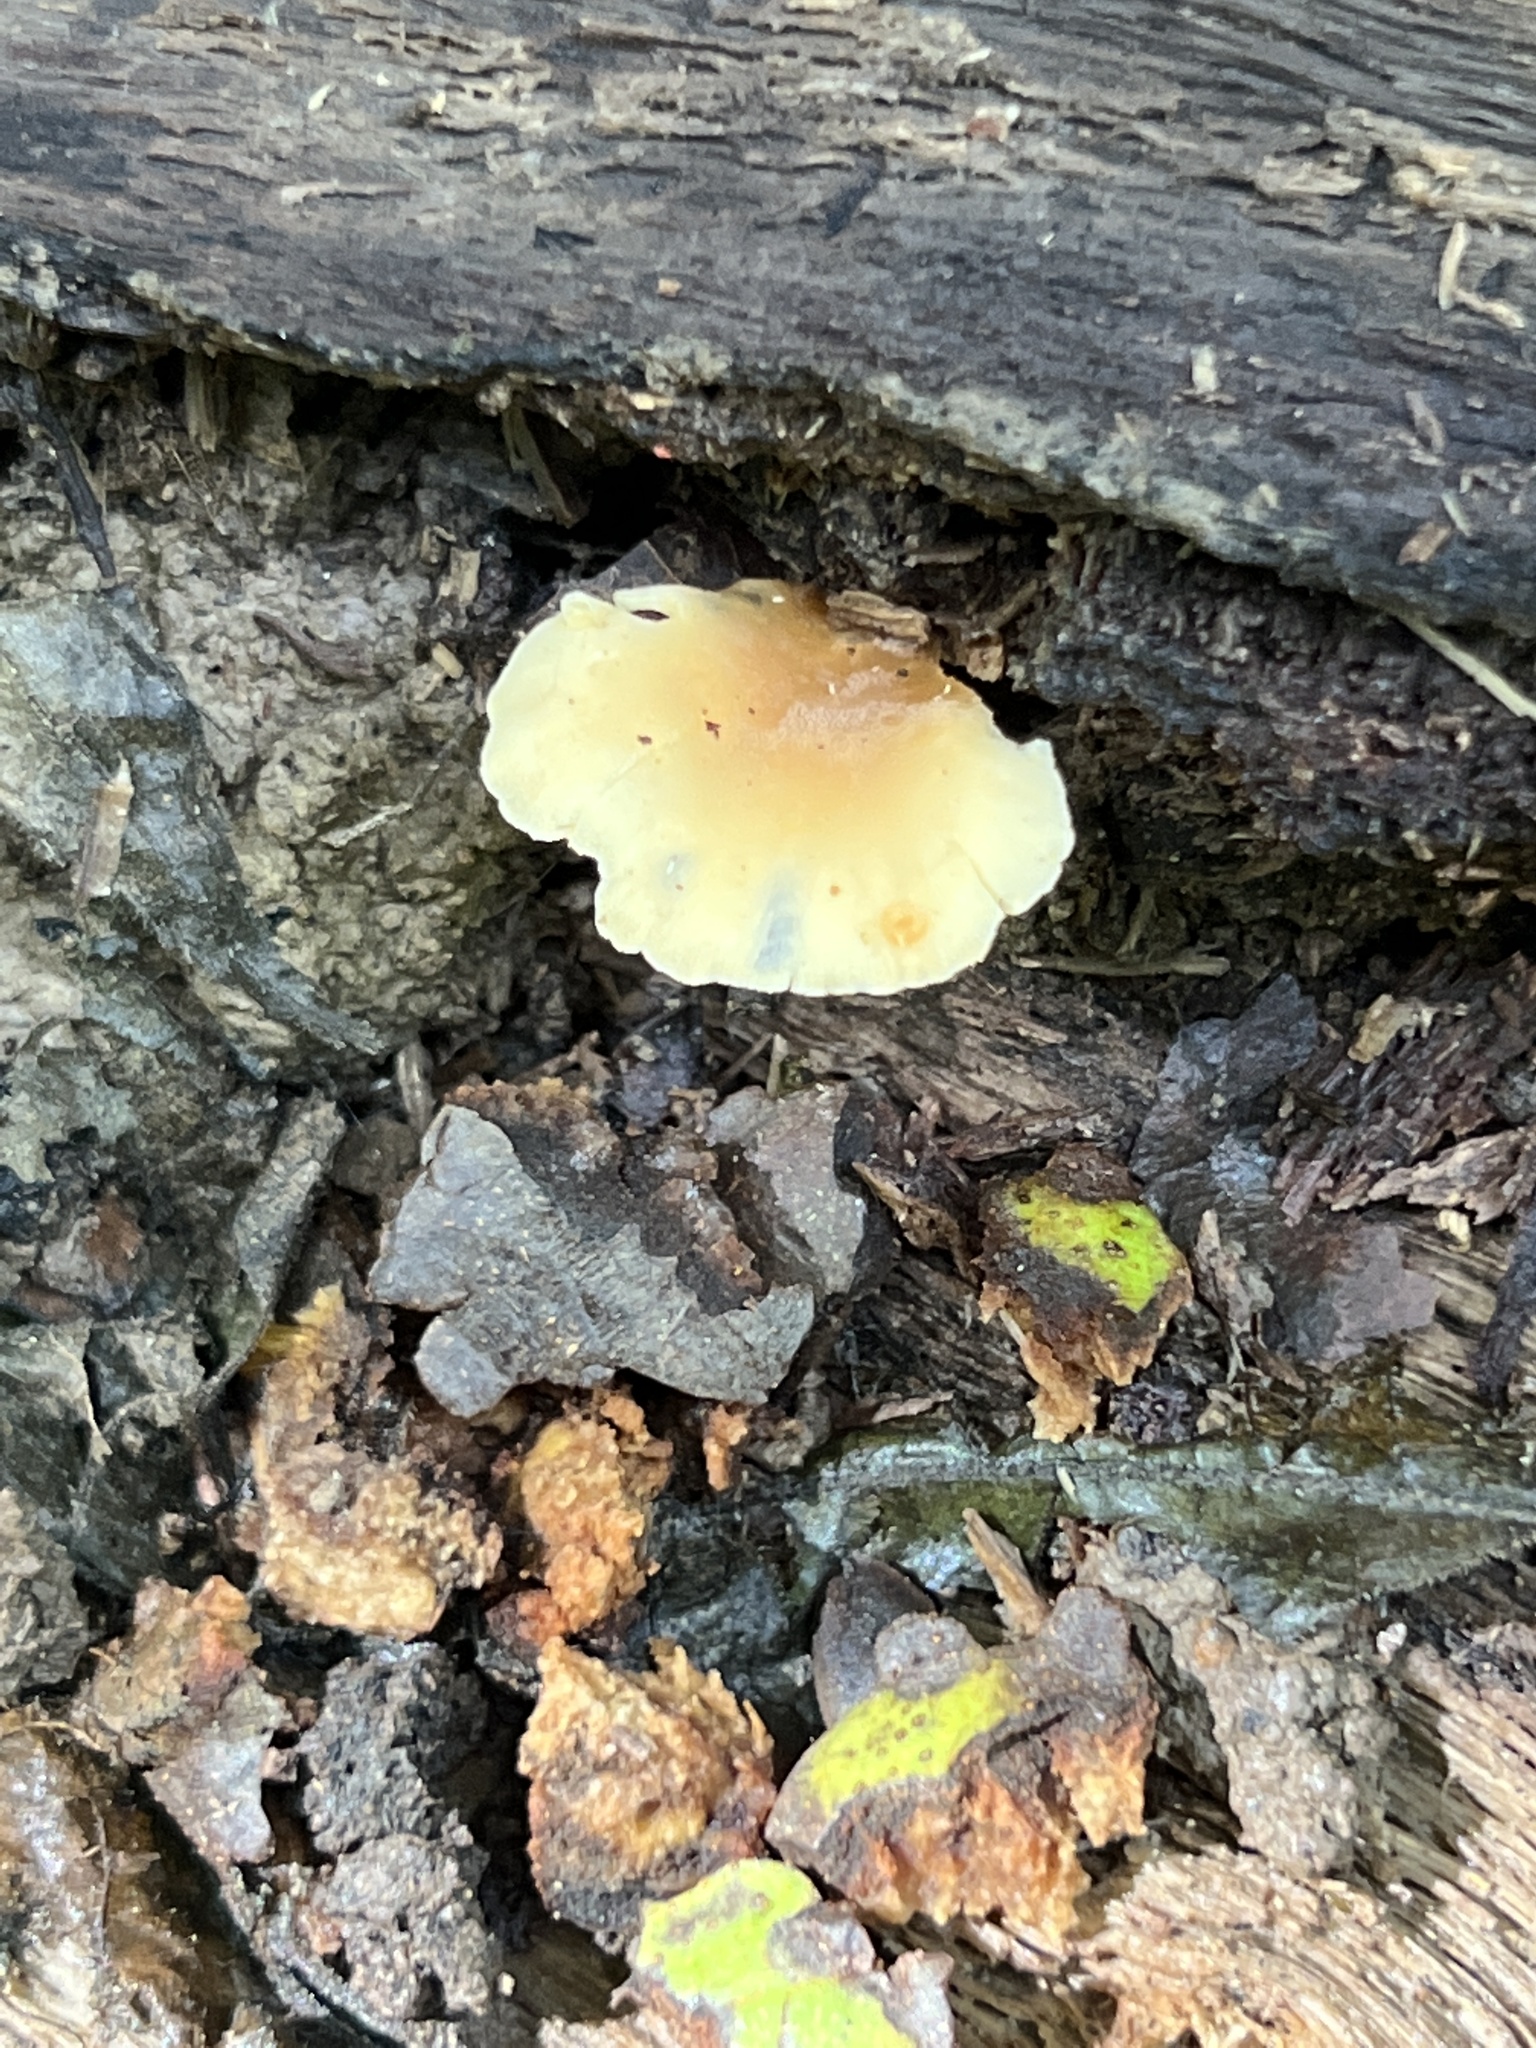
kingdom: Fungi
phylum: Basidiomycota
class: Agaricomycetes
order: Agaricales
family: Pleurotaceae
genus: Hohenbuehelia
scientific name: Hohenbuehelia angustata
